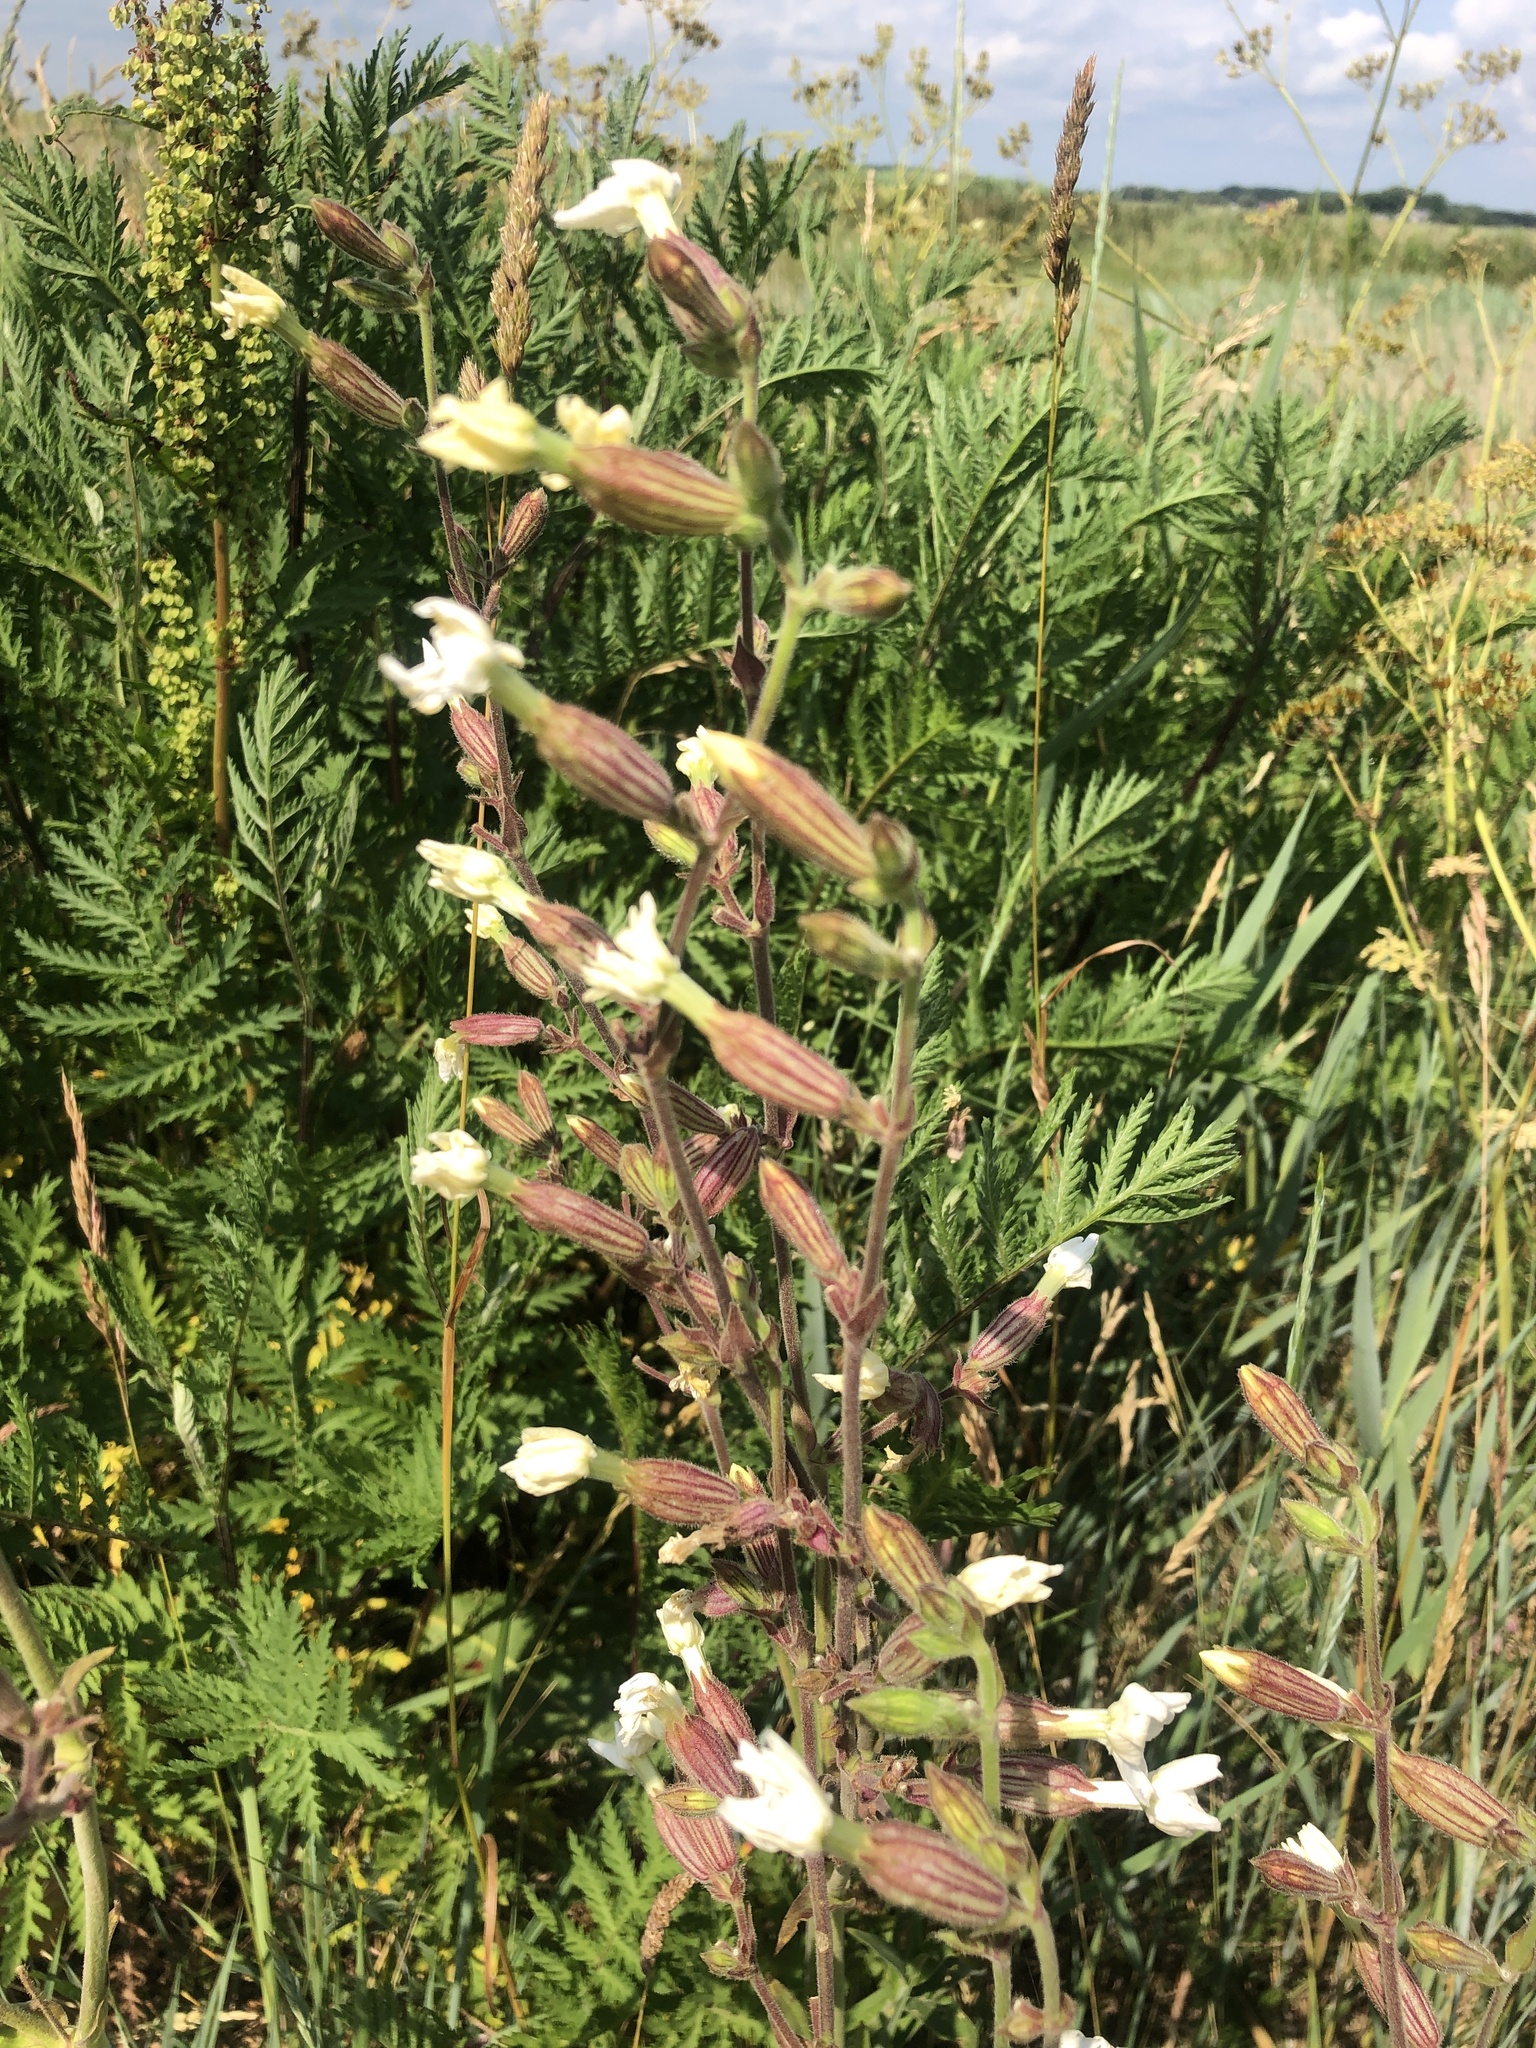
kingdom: Plantae
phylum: Tracheophyta
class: Magnoliopsida
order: Caryophyllales
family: Caryophyllaceae
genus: Silene
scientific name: Silene latifolia
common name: White campion
